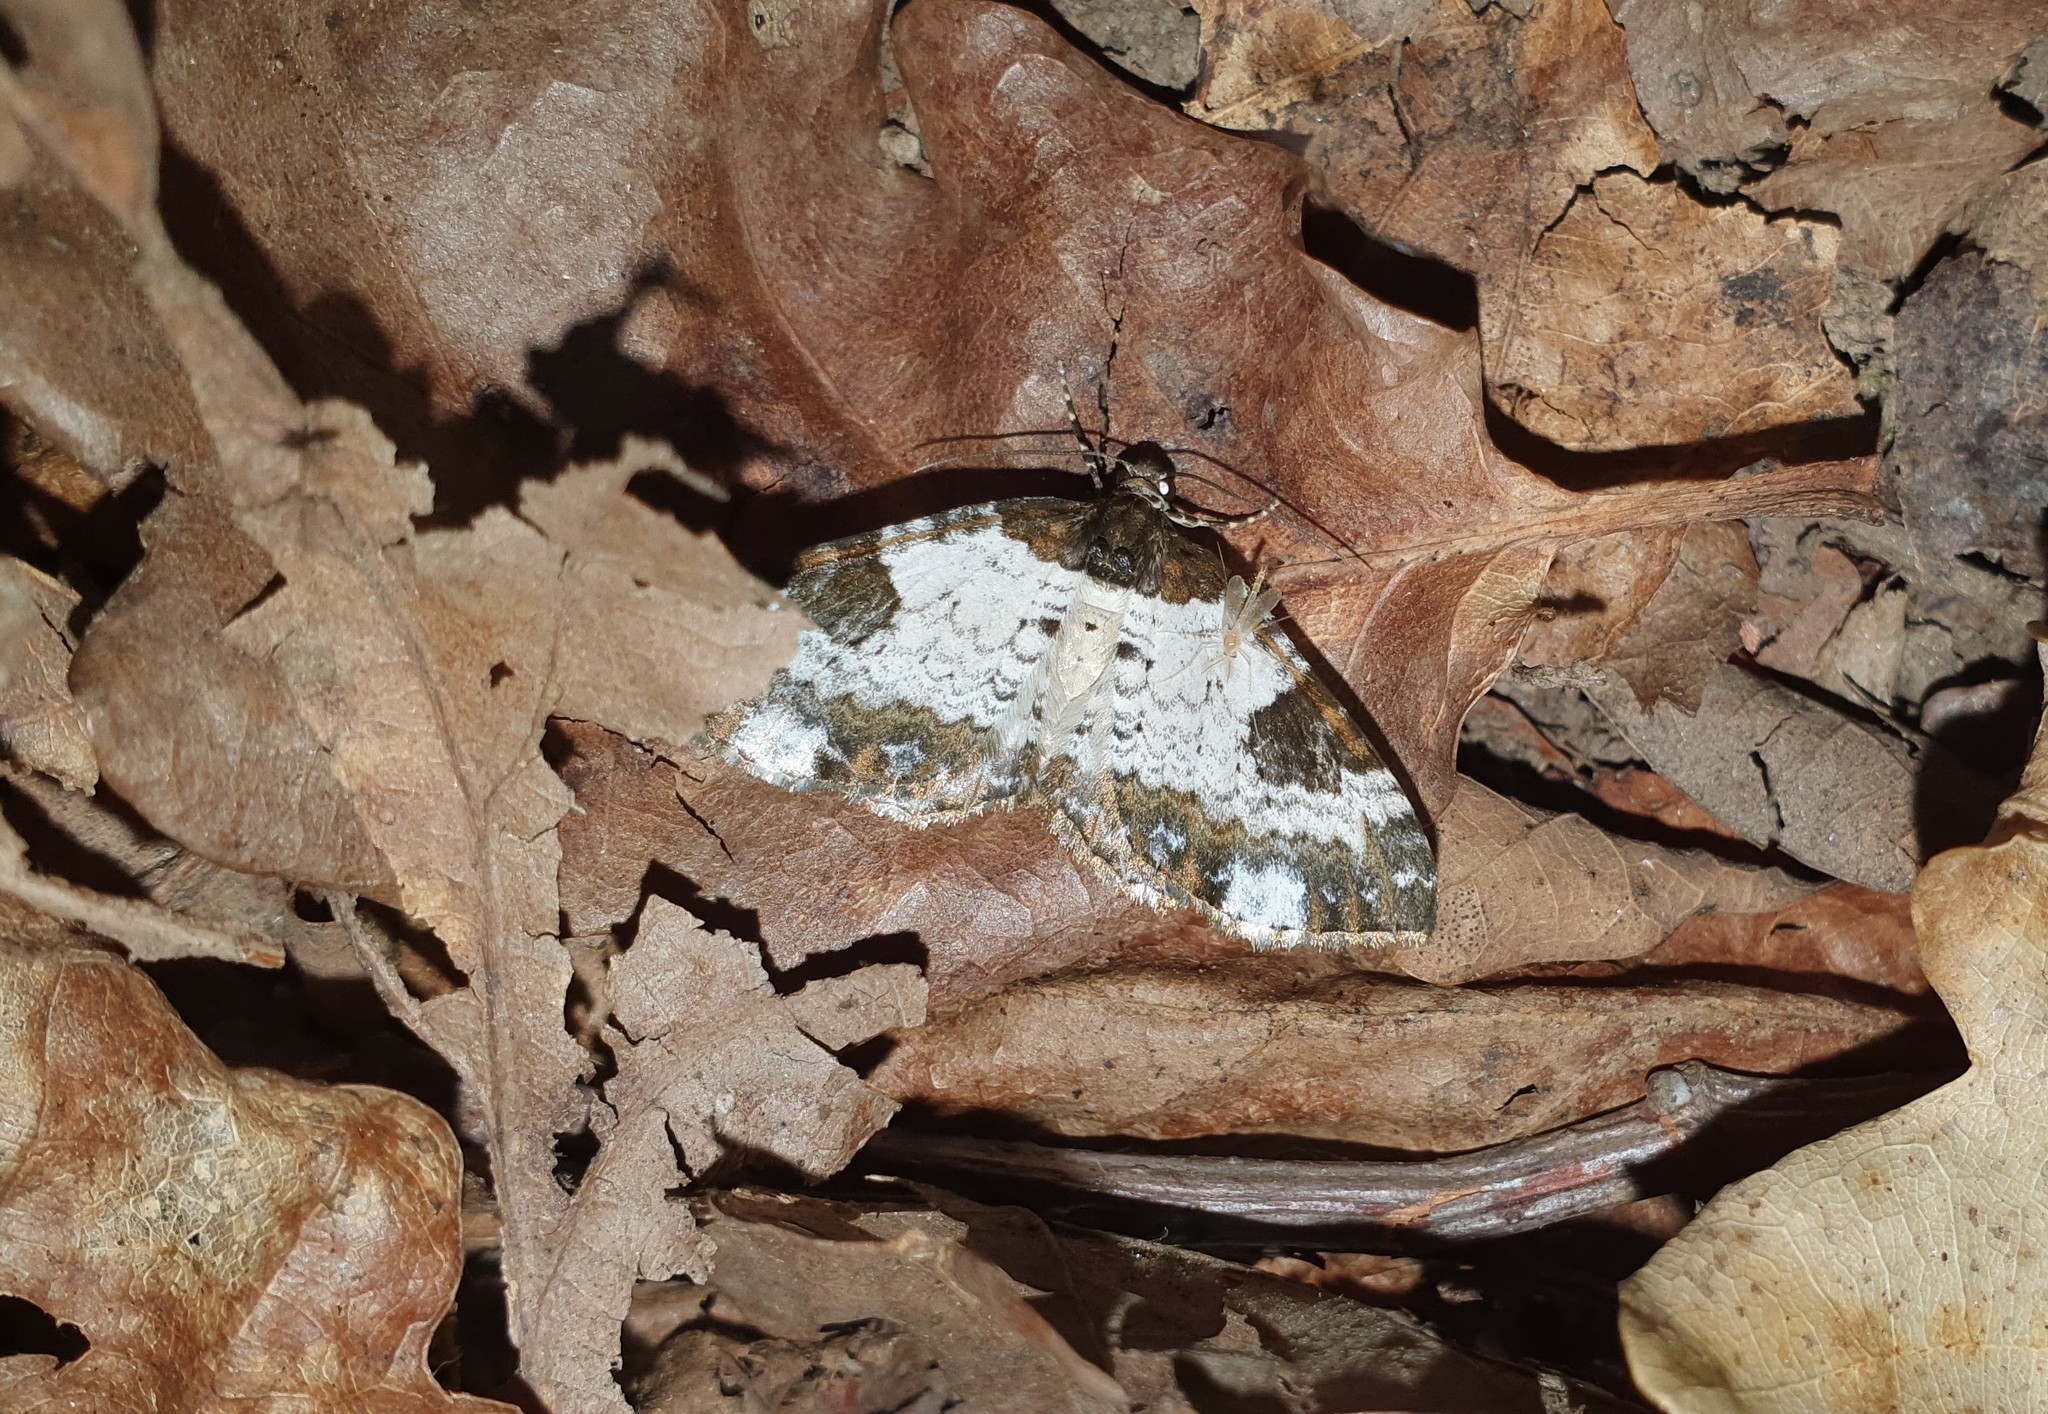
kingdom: Animalia
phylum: Arthropoda
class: Insecta
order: Lepidoptera
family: Geometridae
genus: Melanthia
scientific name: Melanthia procellata
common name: Pretty chalk carpet
